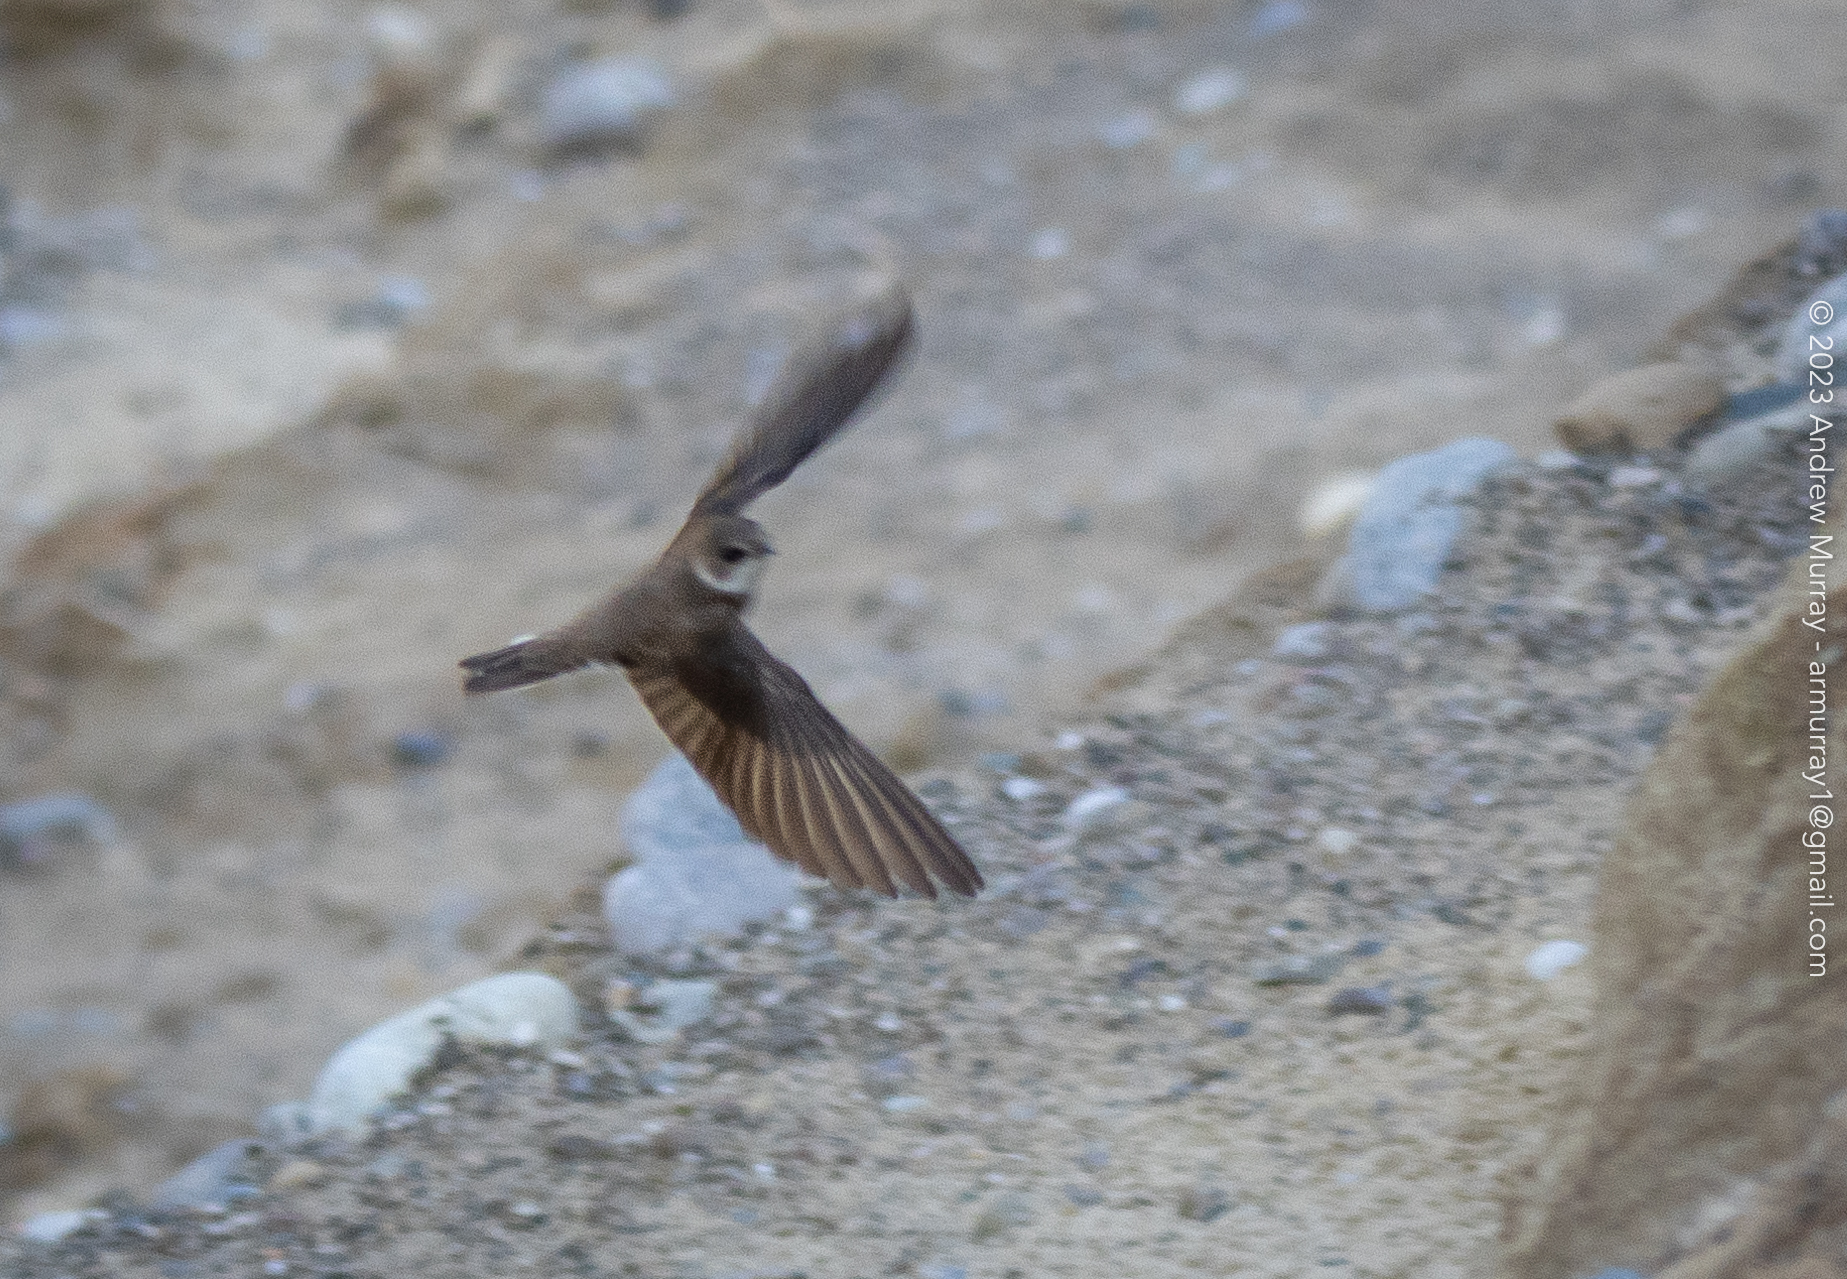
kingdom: Animalia
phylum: Chordata
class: Aves
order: Passeriformes
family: Hirundinidae
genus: Riparia
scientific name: Riparia riparia
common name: Sand martin
